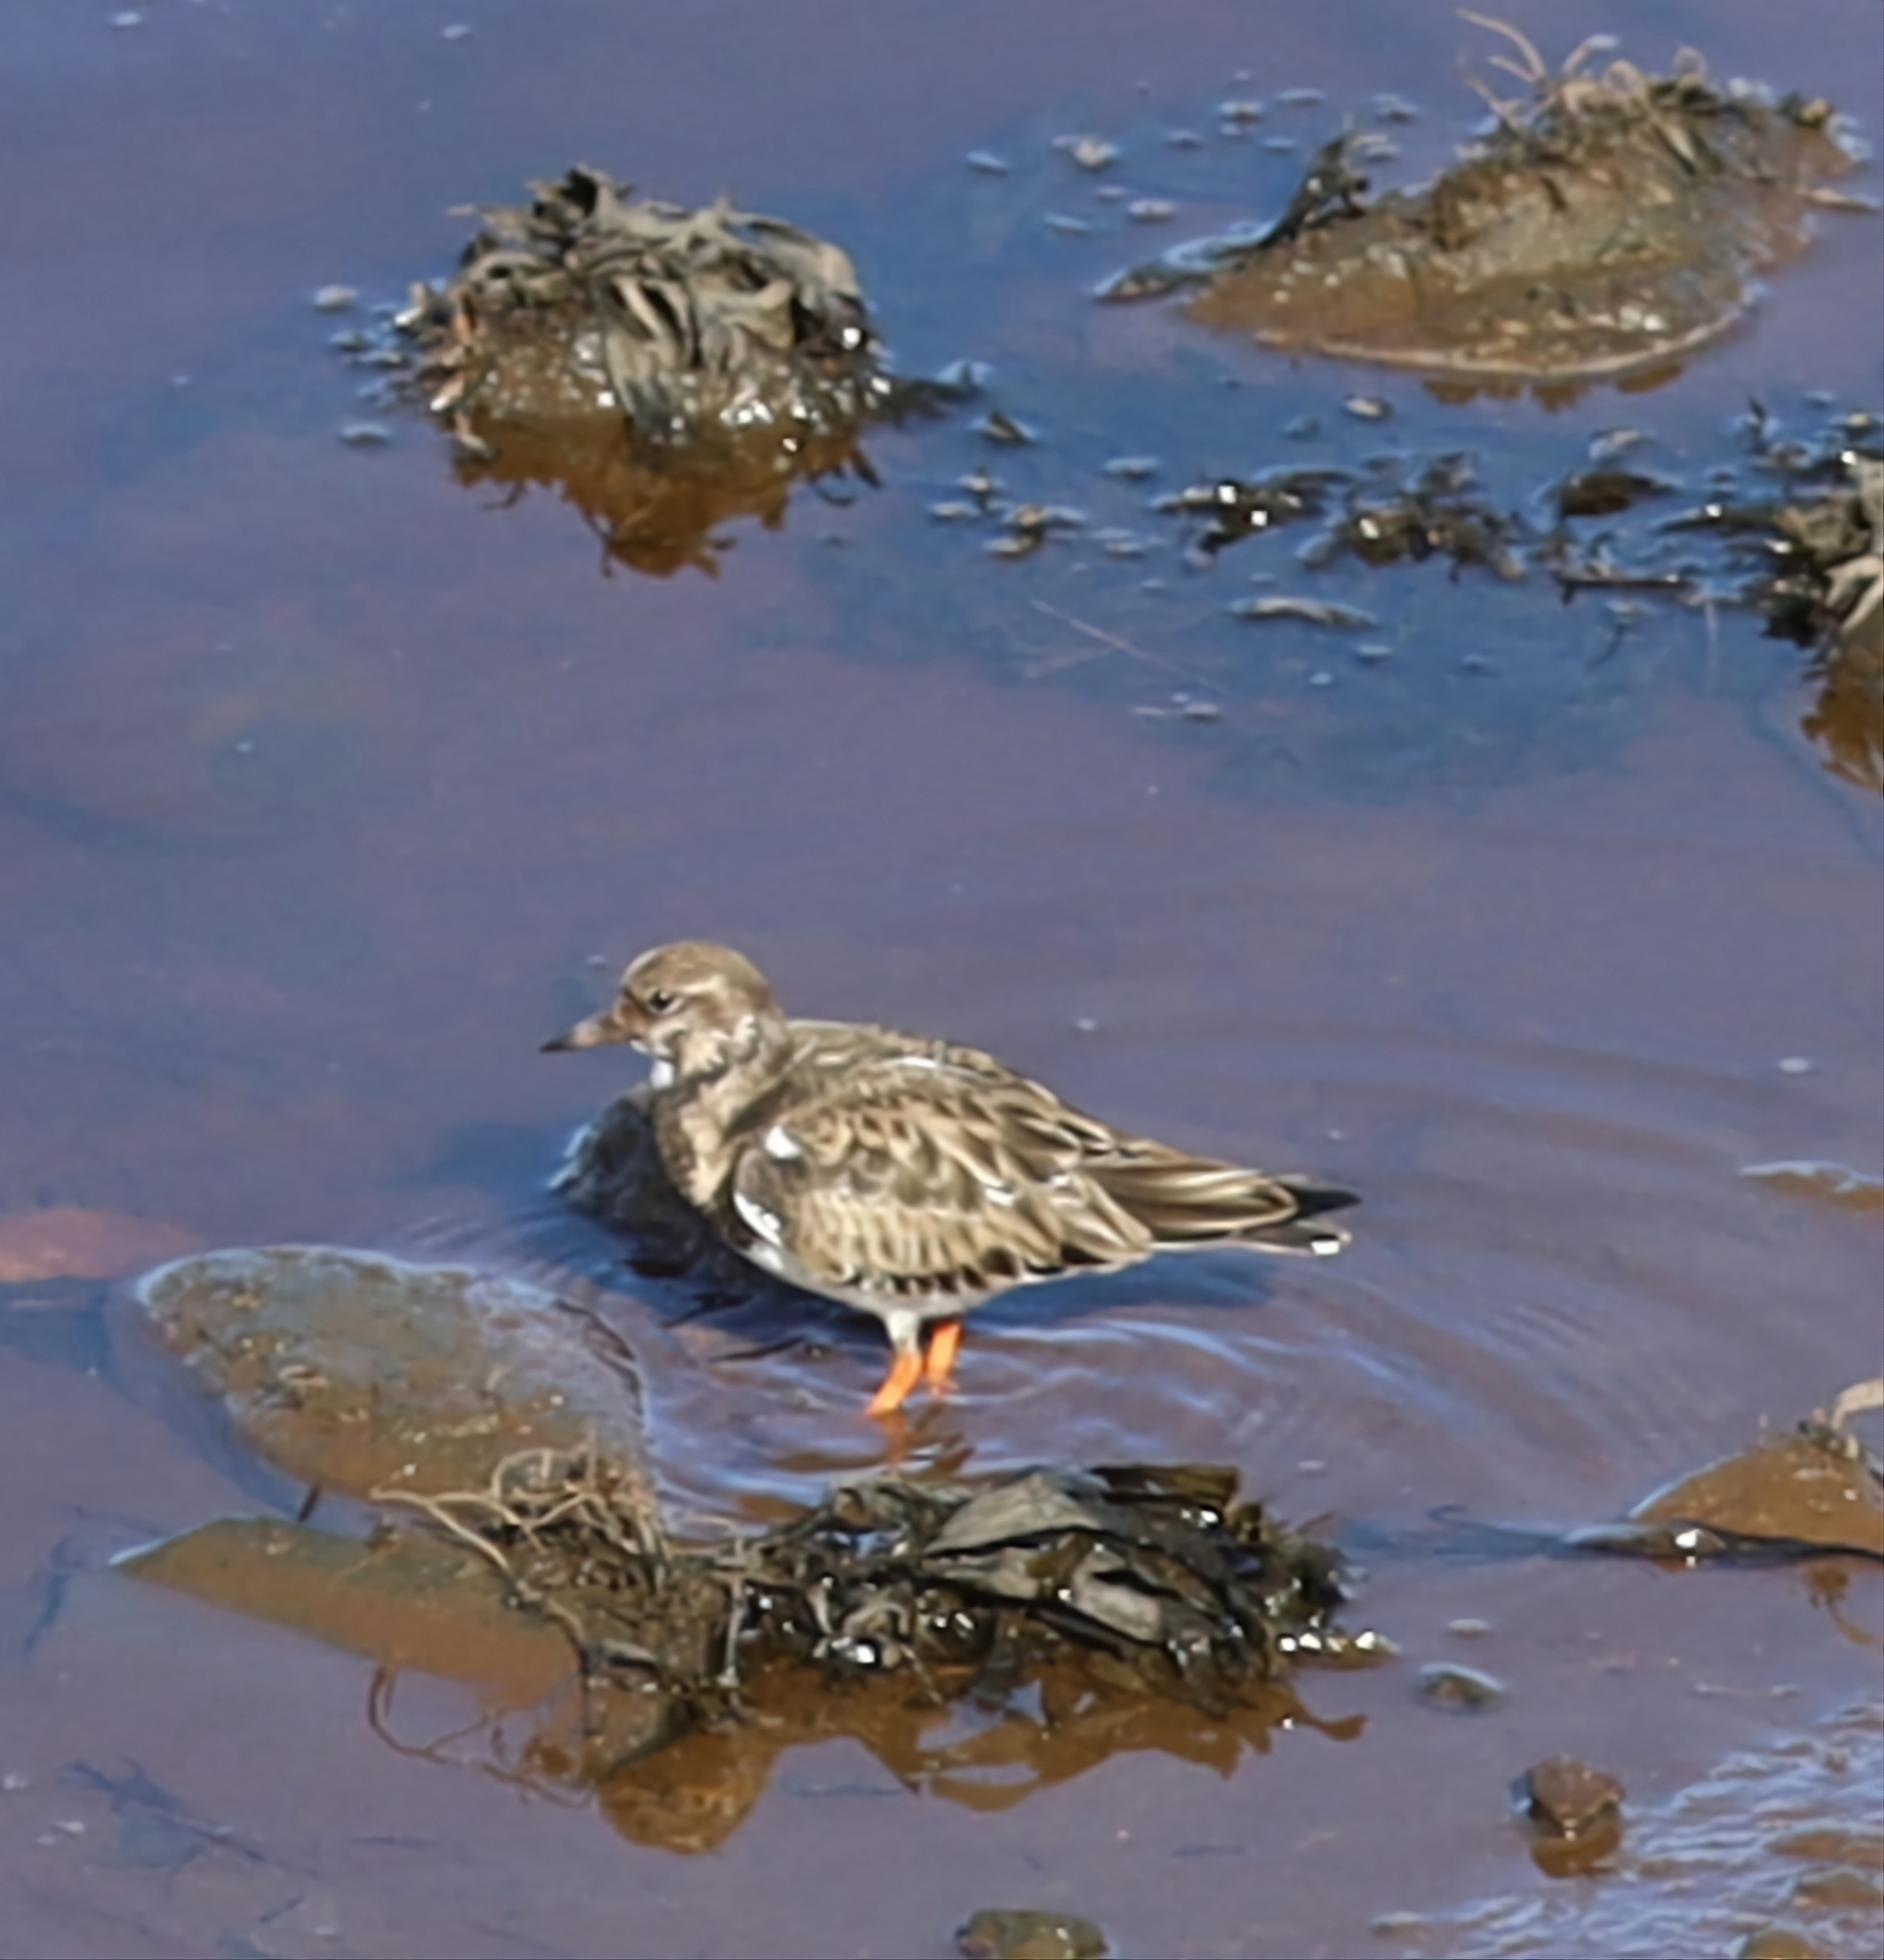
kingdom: Animalia
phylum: Chordata
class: Aves
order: Charadriiformes
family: Scolopacidae
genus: Arenaria
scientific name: Arenaria interpres
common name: Ruddy turnstone
